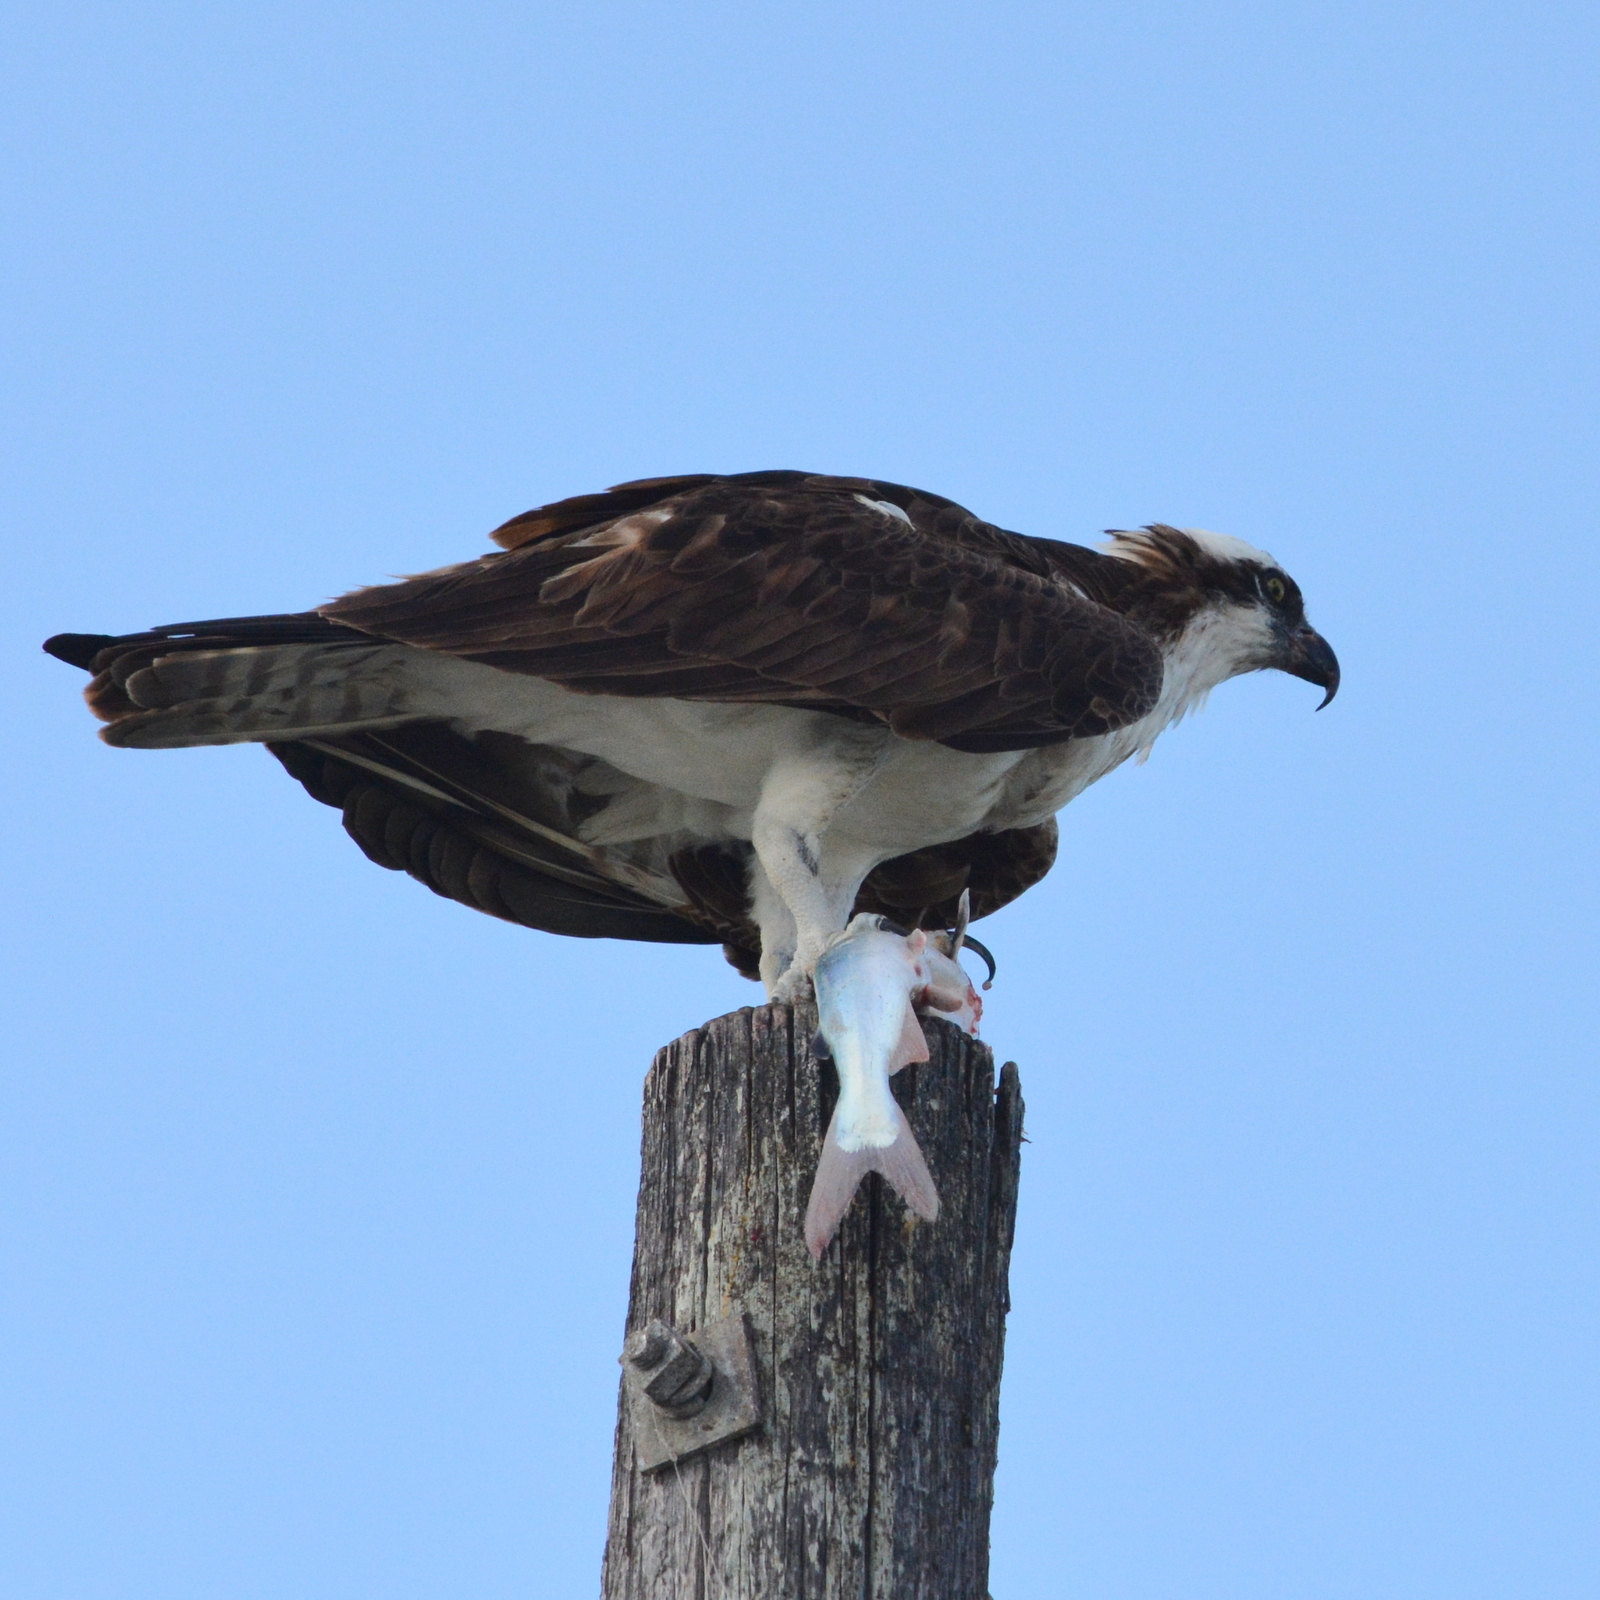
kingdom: Animalia
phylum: Chordata
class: Aves
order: Accipitriformes
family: Pandionidae
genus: Pandion
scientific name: Pandion haliaetus
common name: Osprey
